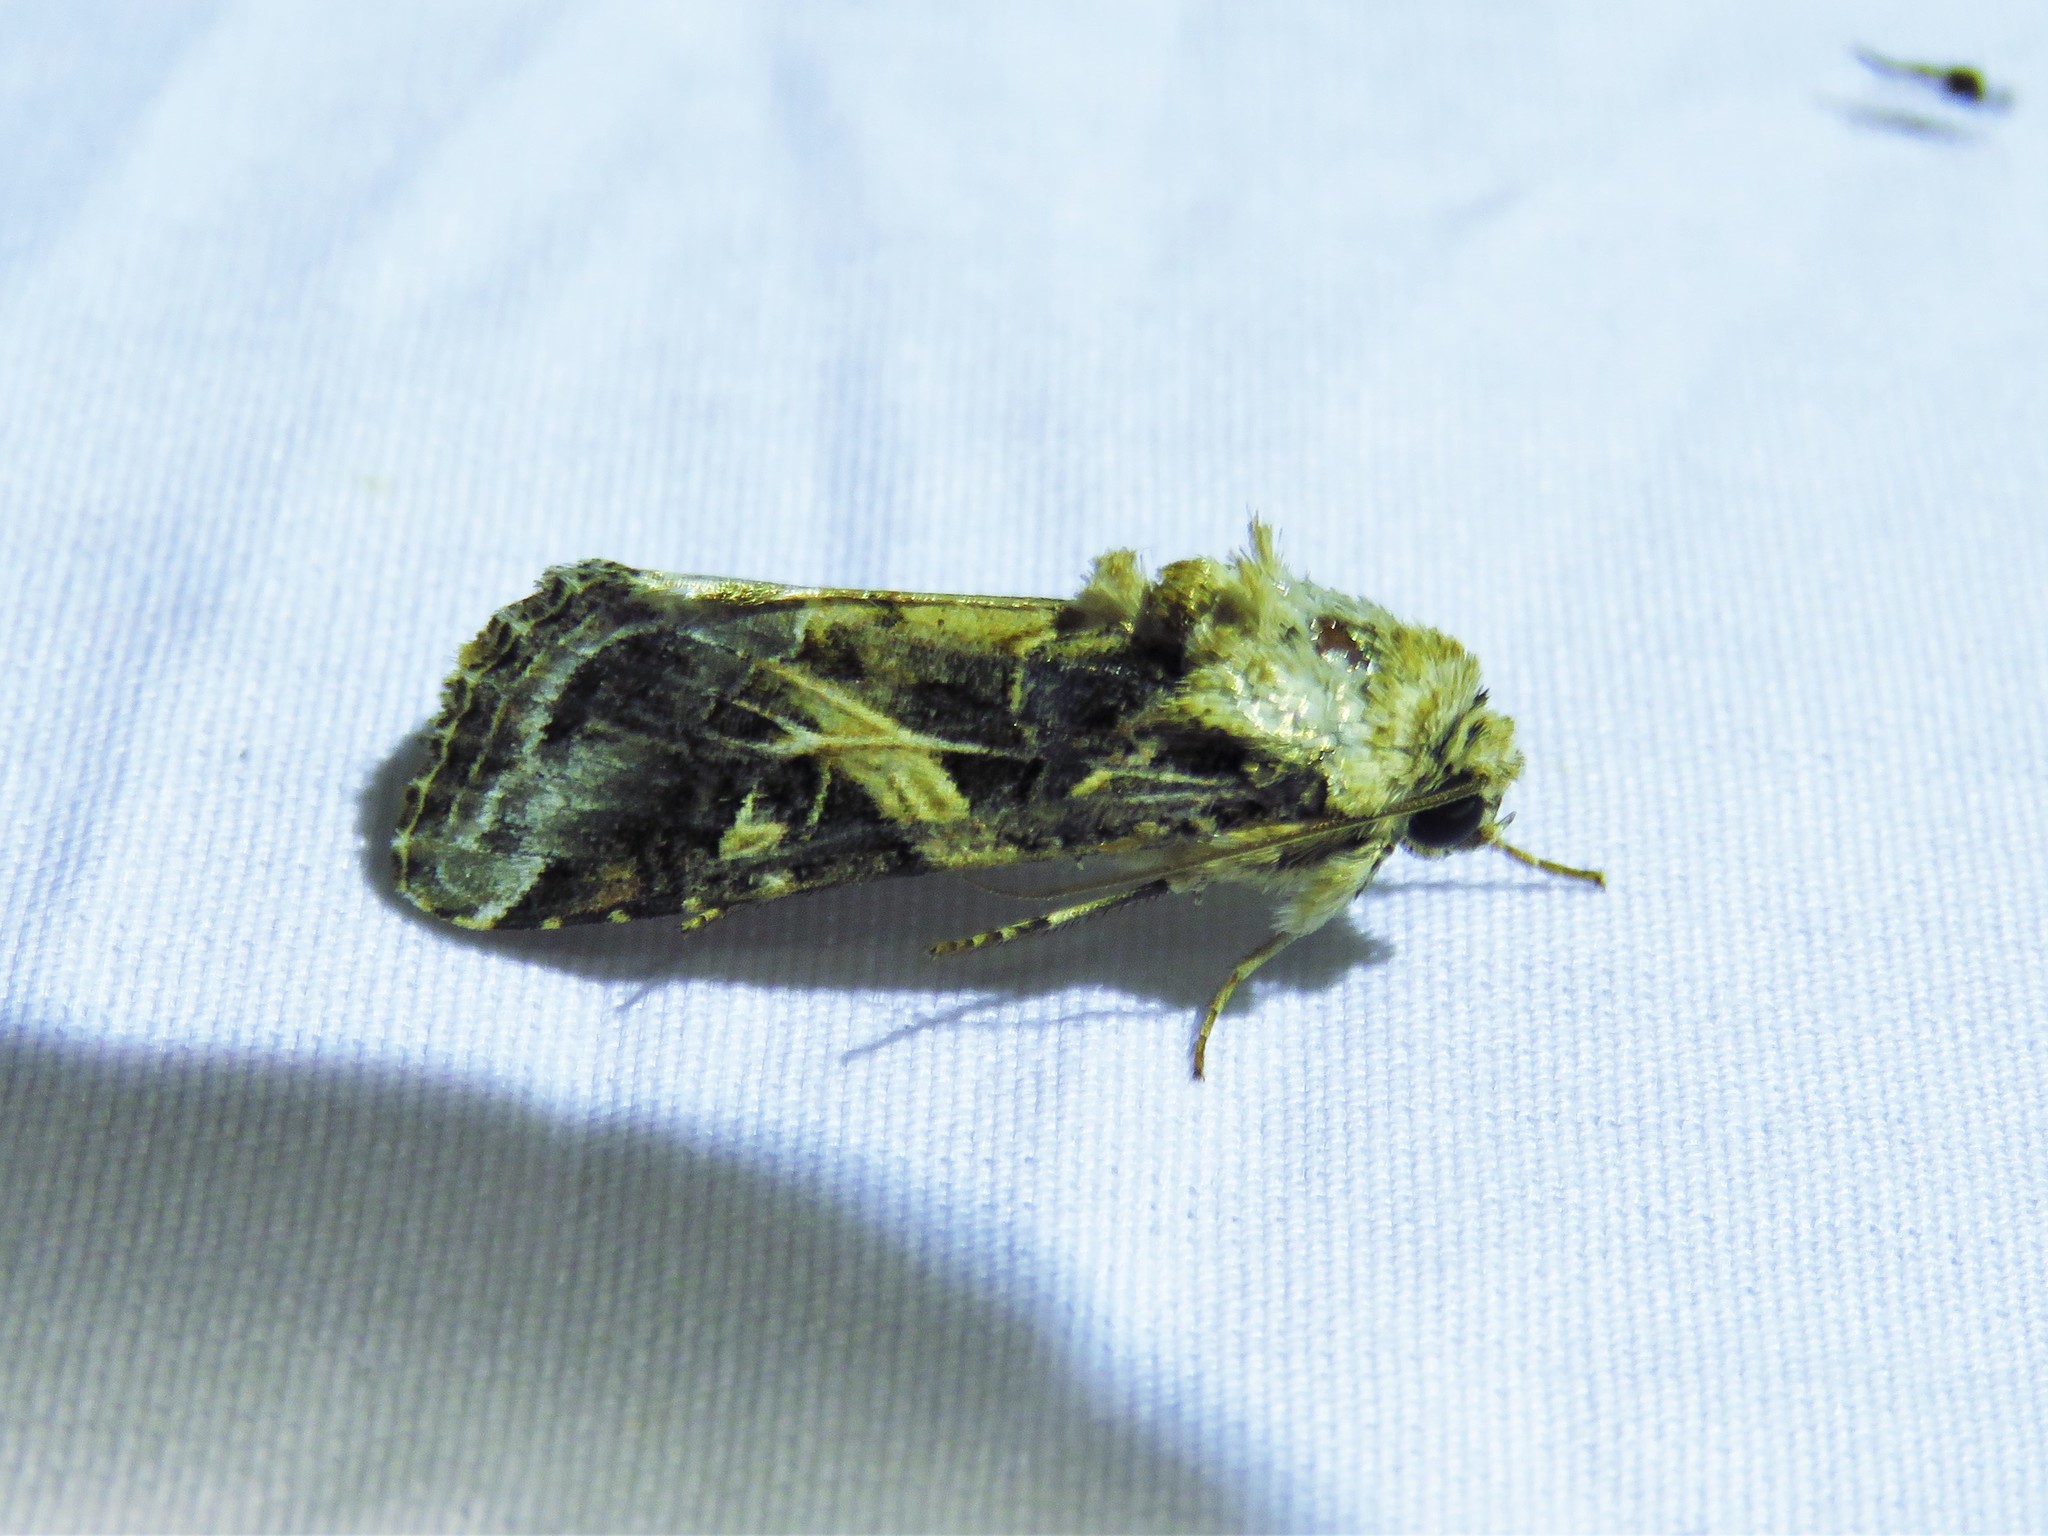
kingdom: Animalia
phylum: Arthropoda
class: Insecta
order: Lepidoptera
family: Noctuidae
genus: Spodoptera
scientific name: Spodoptera ornithogalli
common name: Yellow-striped armyworm
